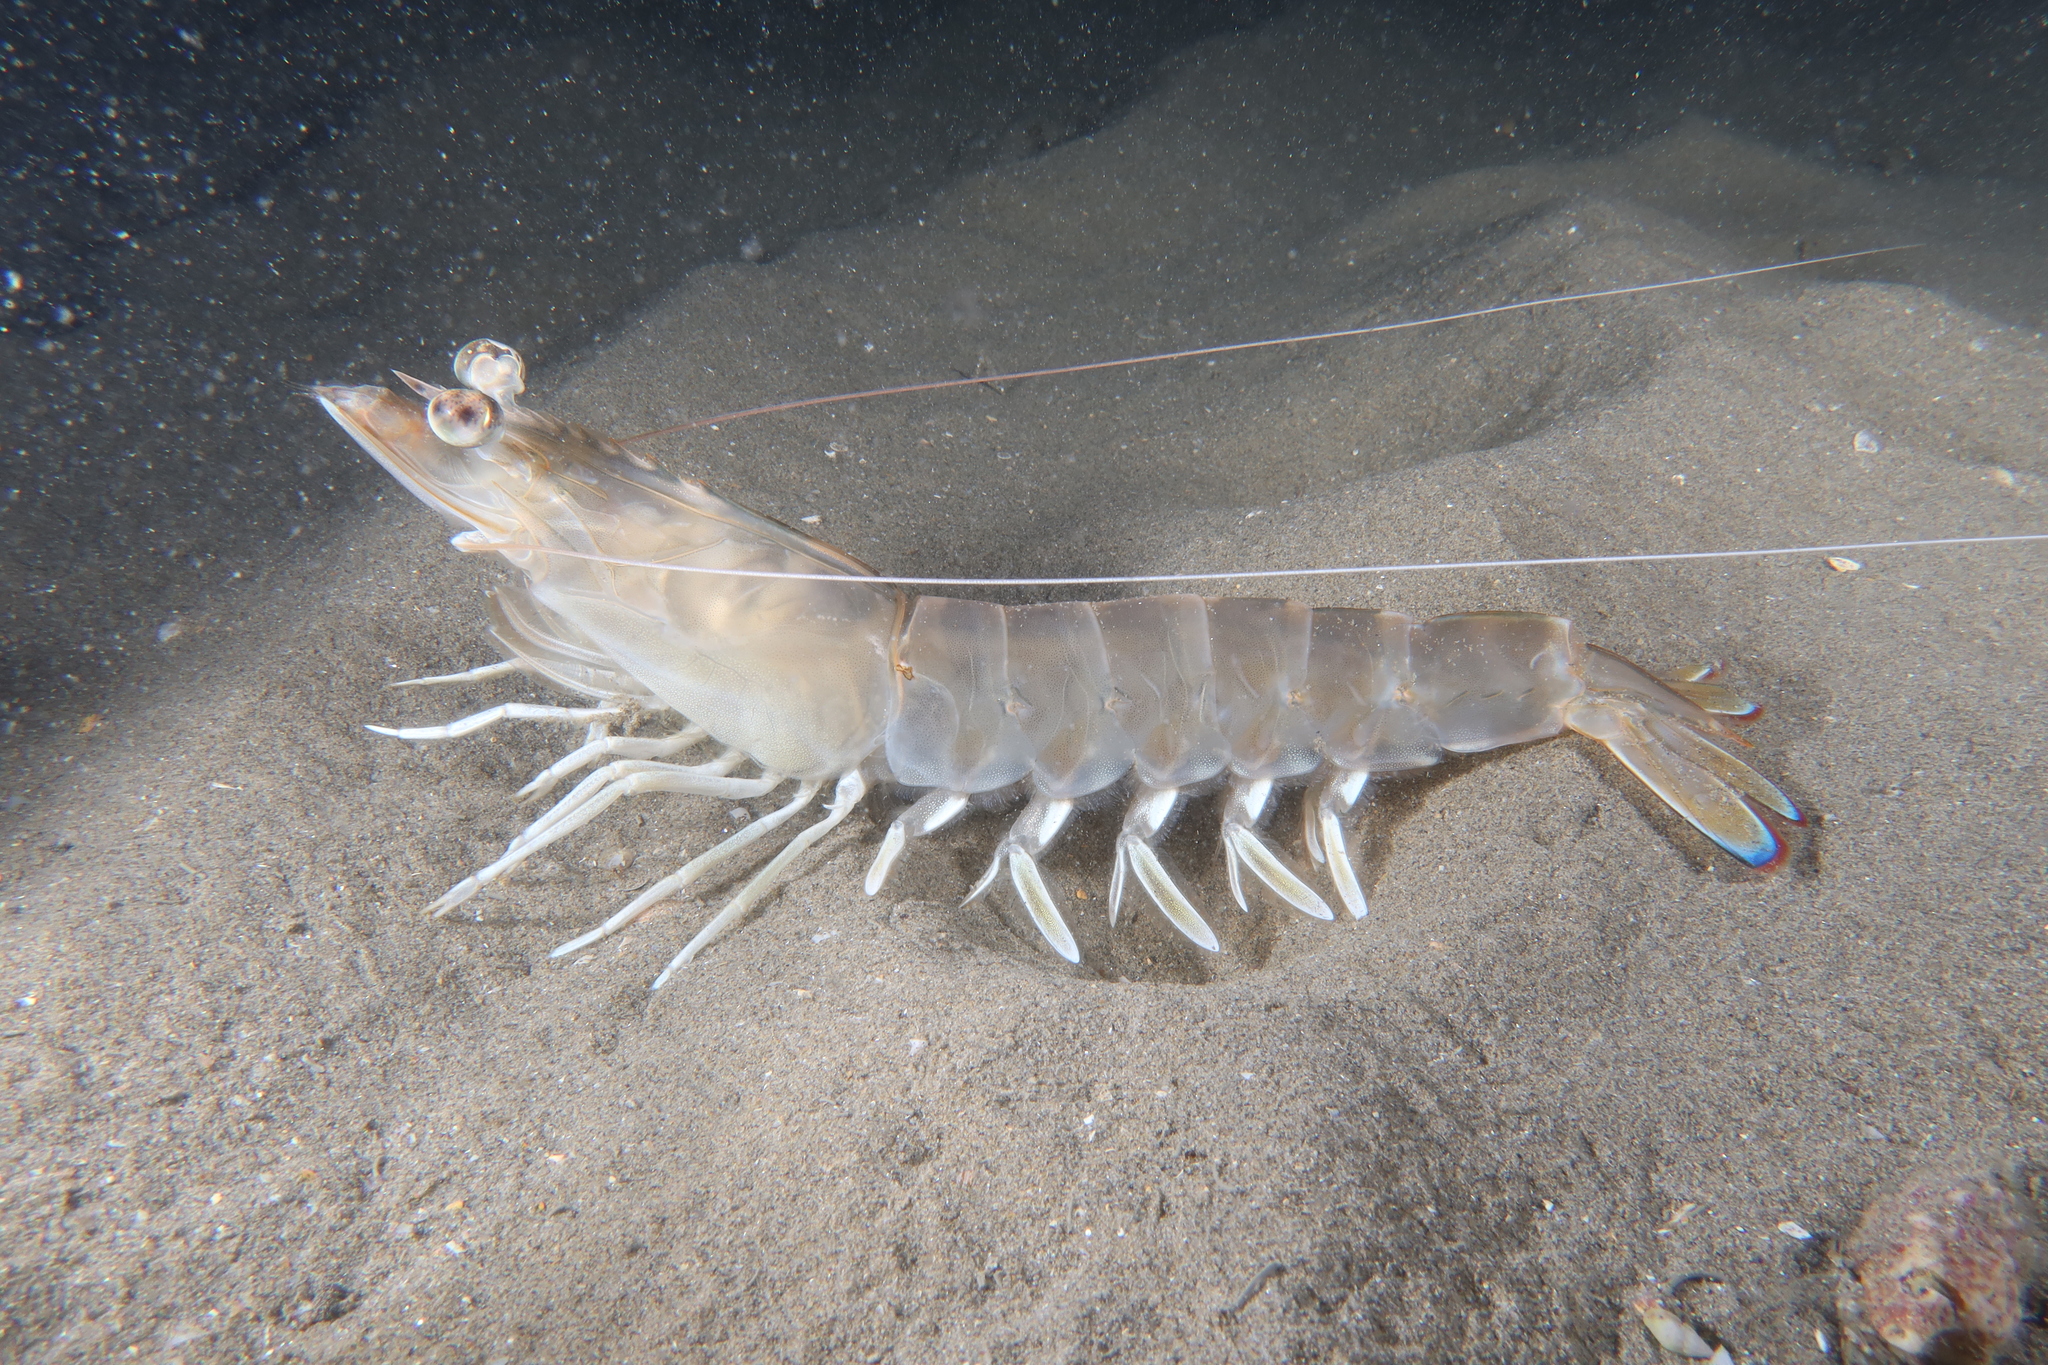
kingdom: Animalia
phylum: Arthropoda
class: Malacostraca
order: Decapoda
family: Penaeidae
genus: Penaeus
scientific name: Penaeus kerathurus
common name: Caramote prawn
